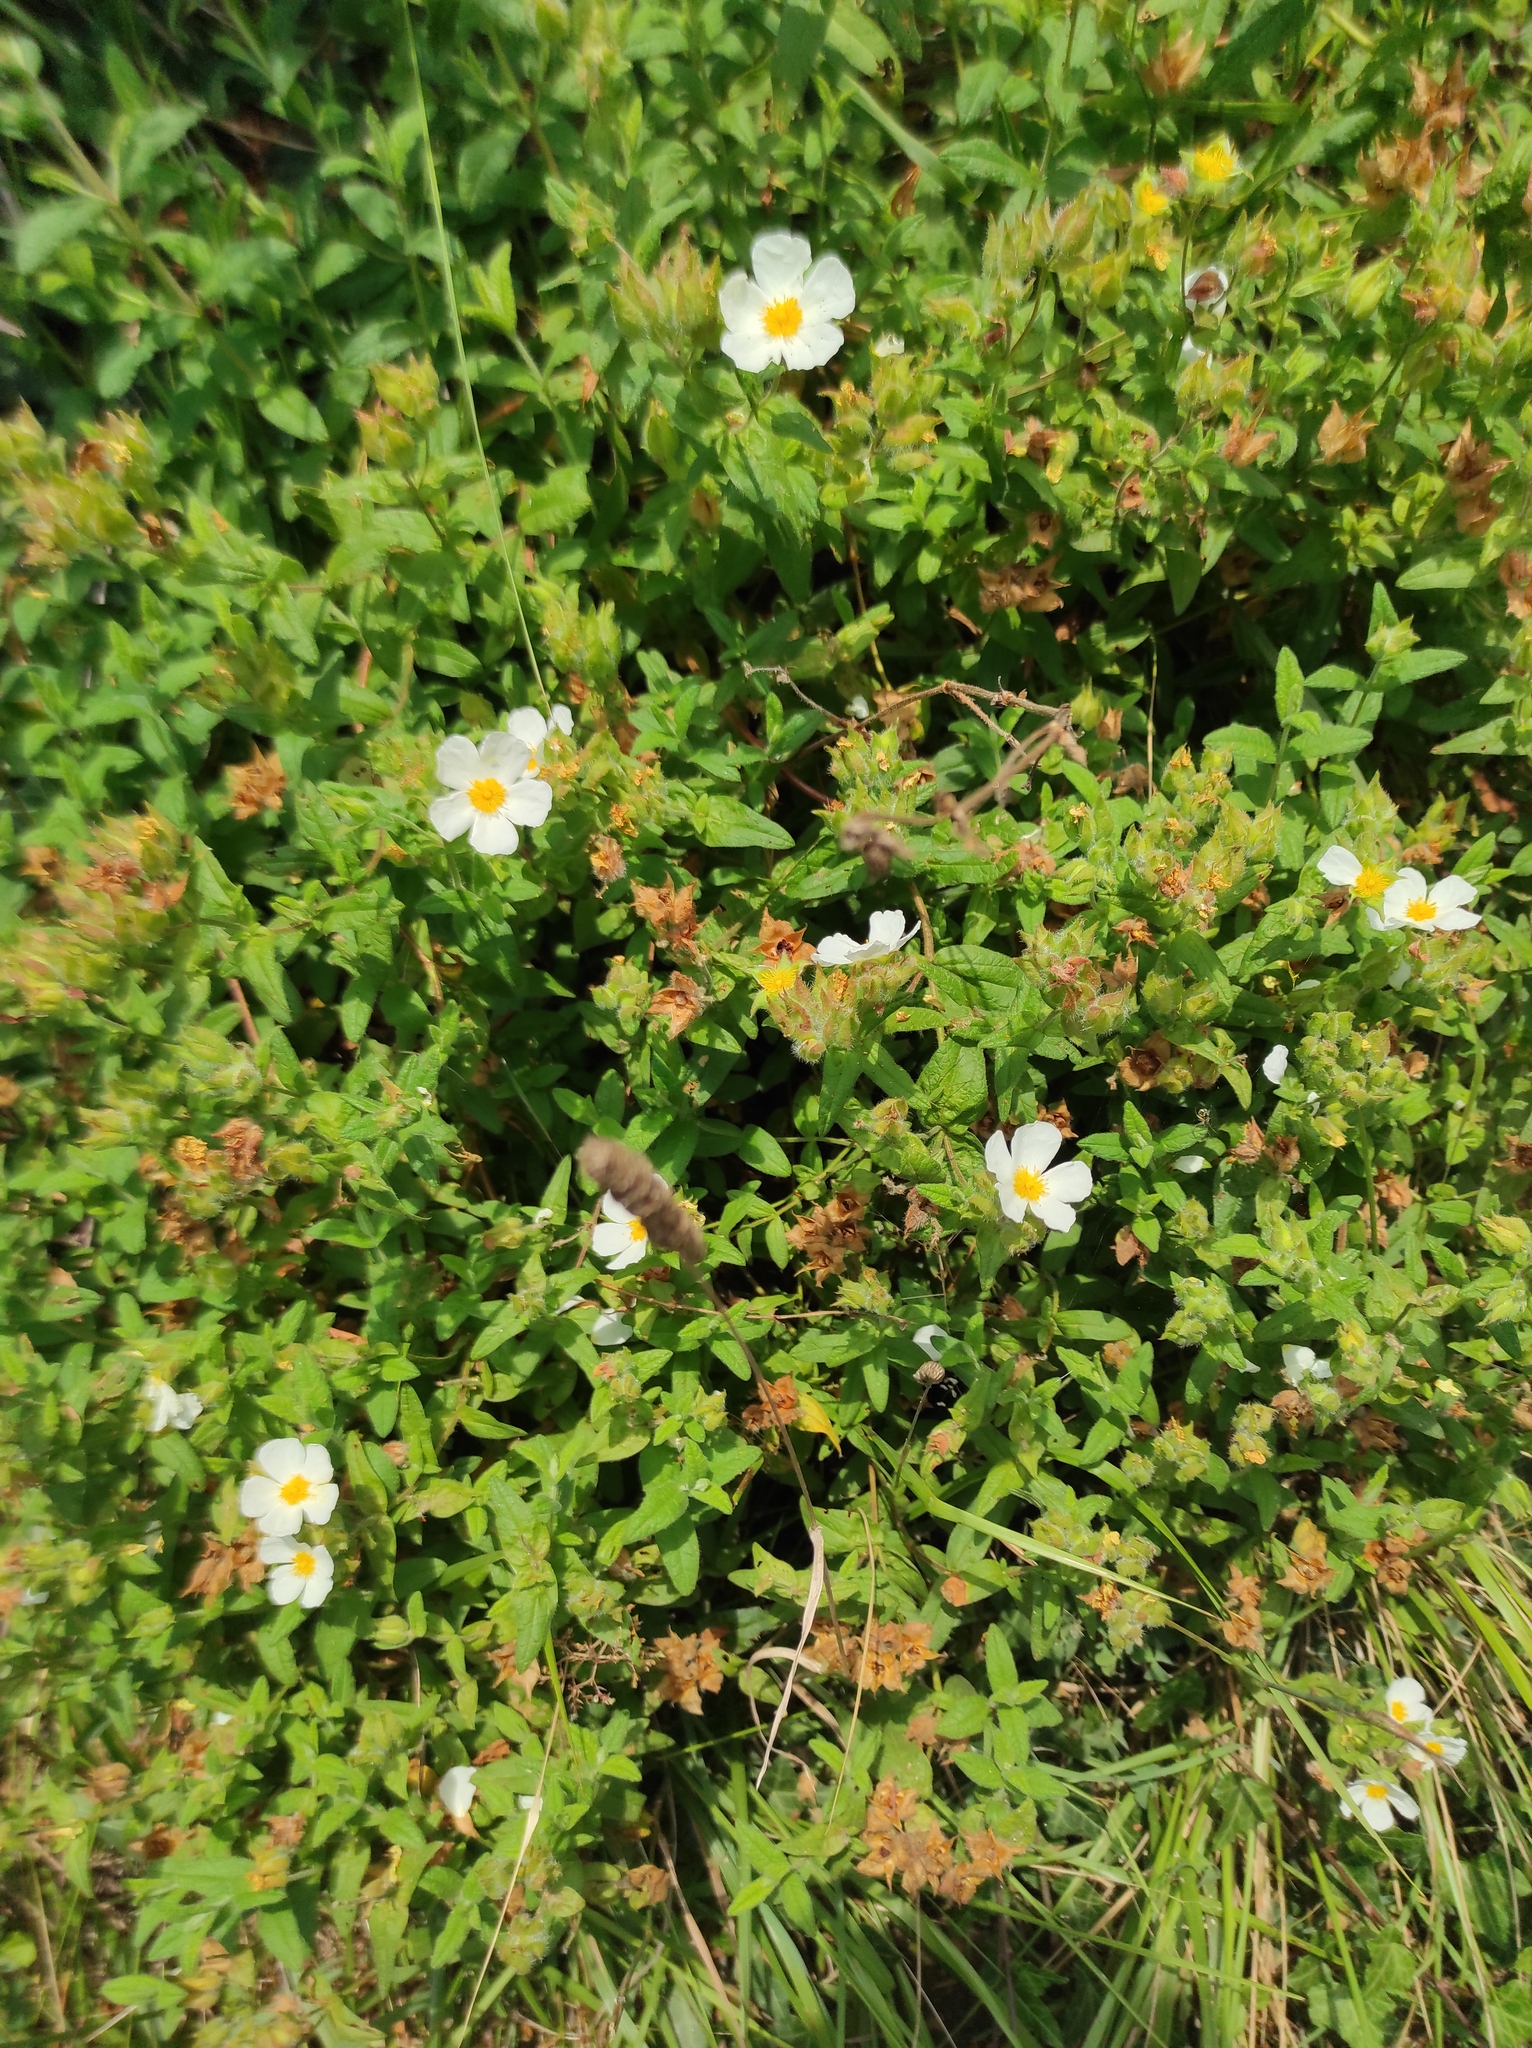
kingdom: Plantae
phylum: Tracheophyta
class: Magnoliopsida
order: Malvales
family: Cistaceae
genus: Cistus
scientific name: Cistus inflatus
